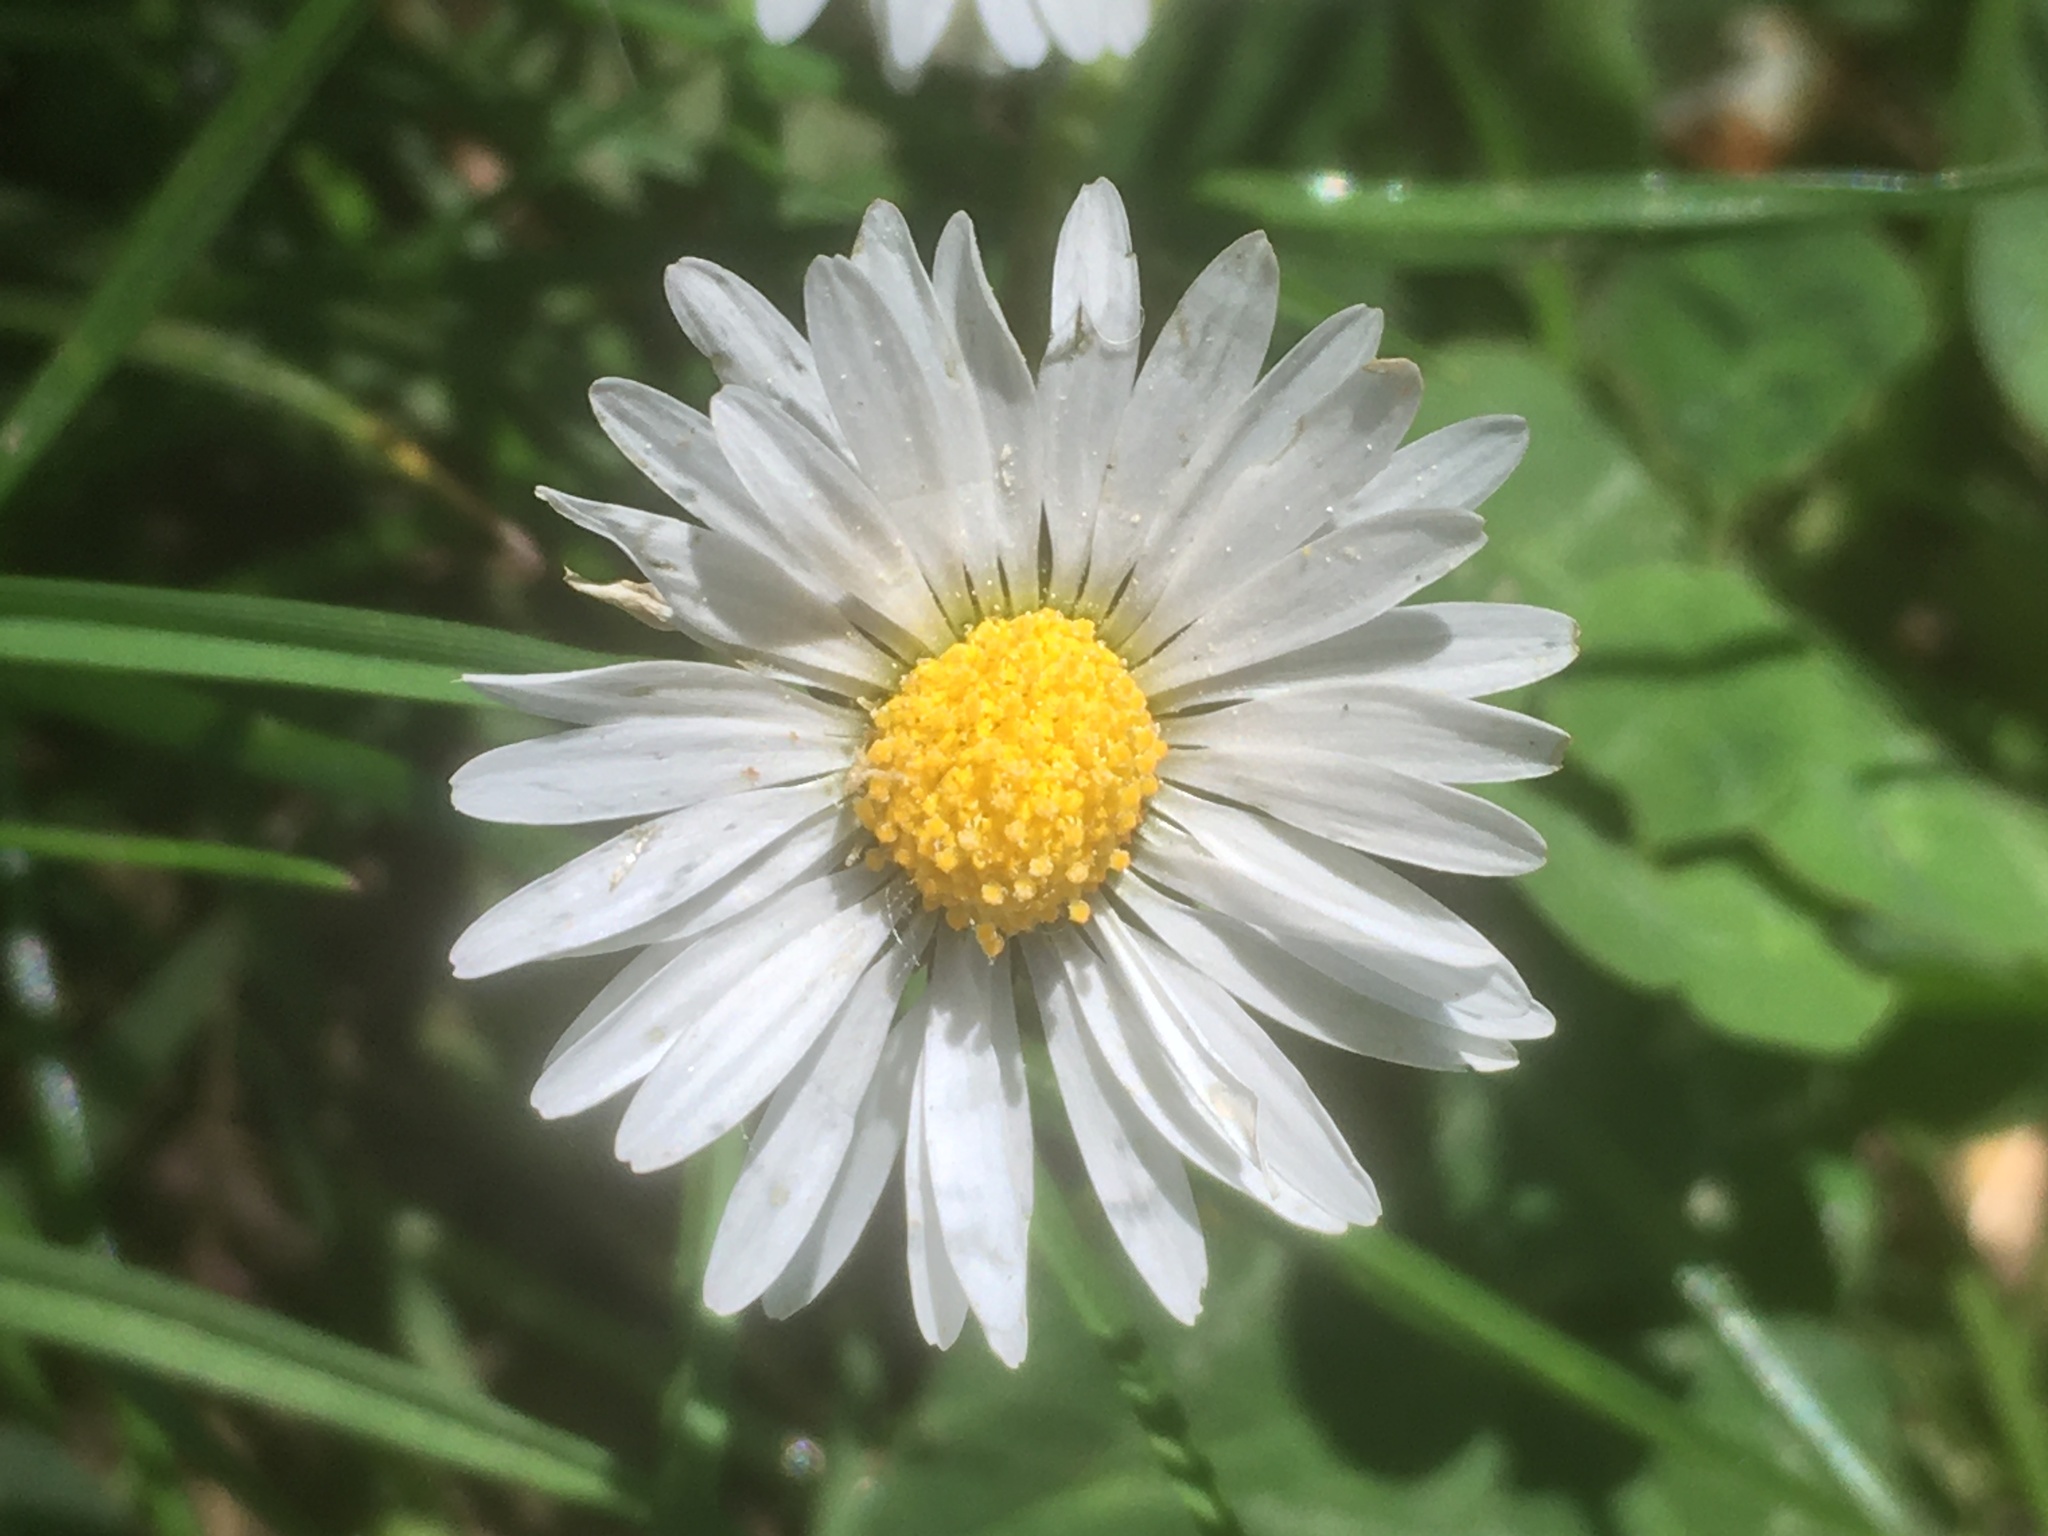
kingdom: Plantae
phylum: Tracheophyta
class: Magnoliopsida
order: Asterales
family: Asteraceae
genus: Bellis
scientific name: Bellis perennis
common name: Lawndaisy
